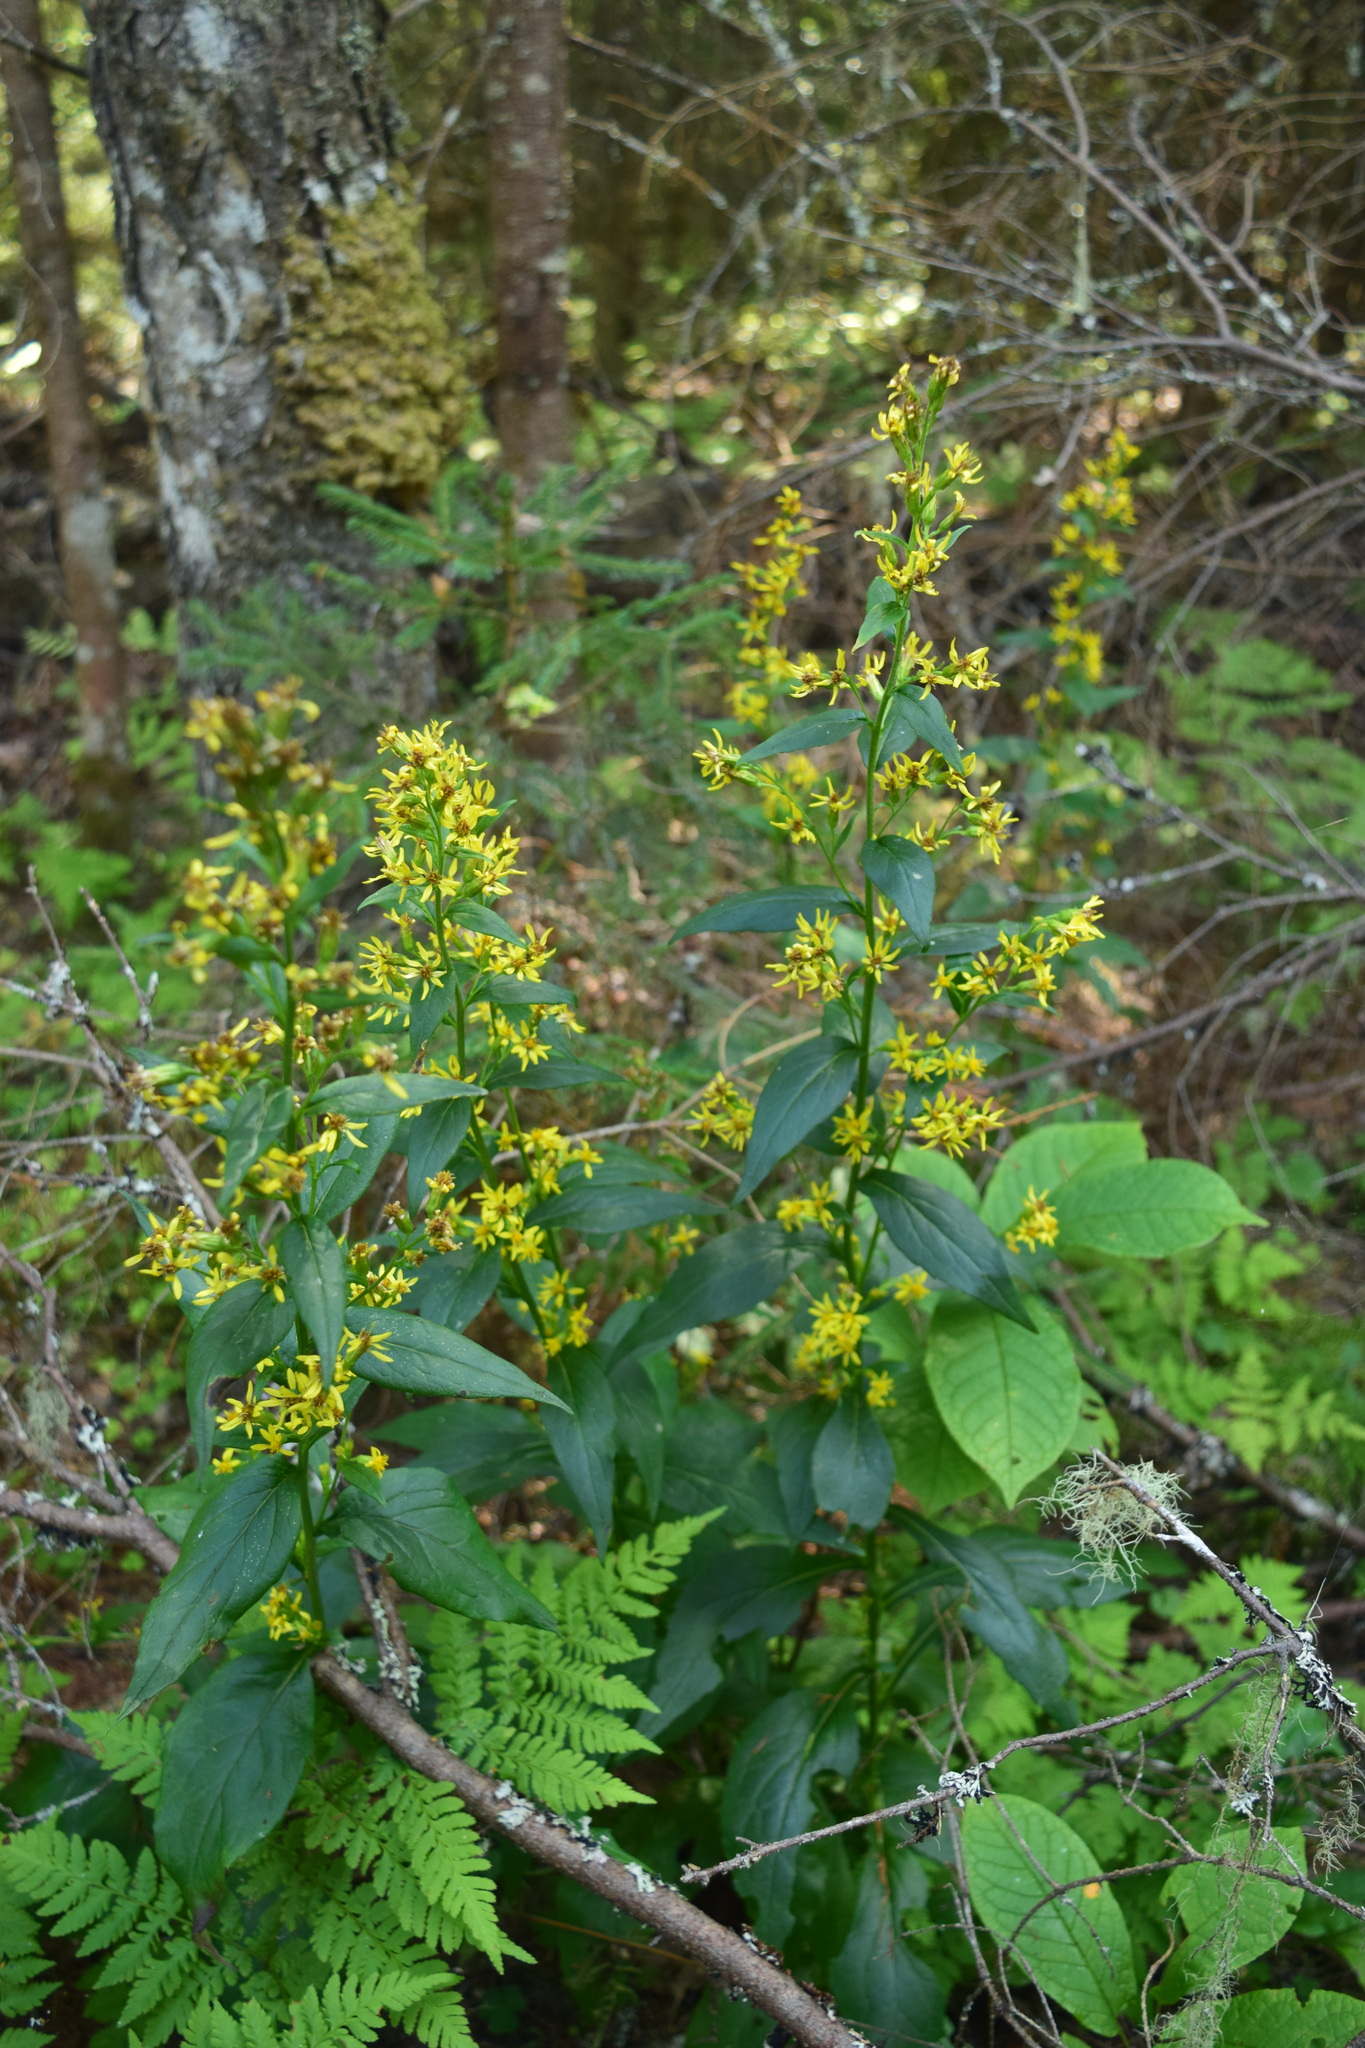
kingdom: Plantae
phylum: Tracheophyta
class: Magnoliopsida
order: Asterales
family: Asteraceae
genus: Solidago
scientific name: Solidago virgaurea
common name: Goldenrod
